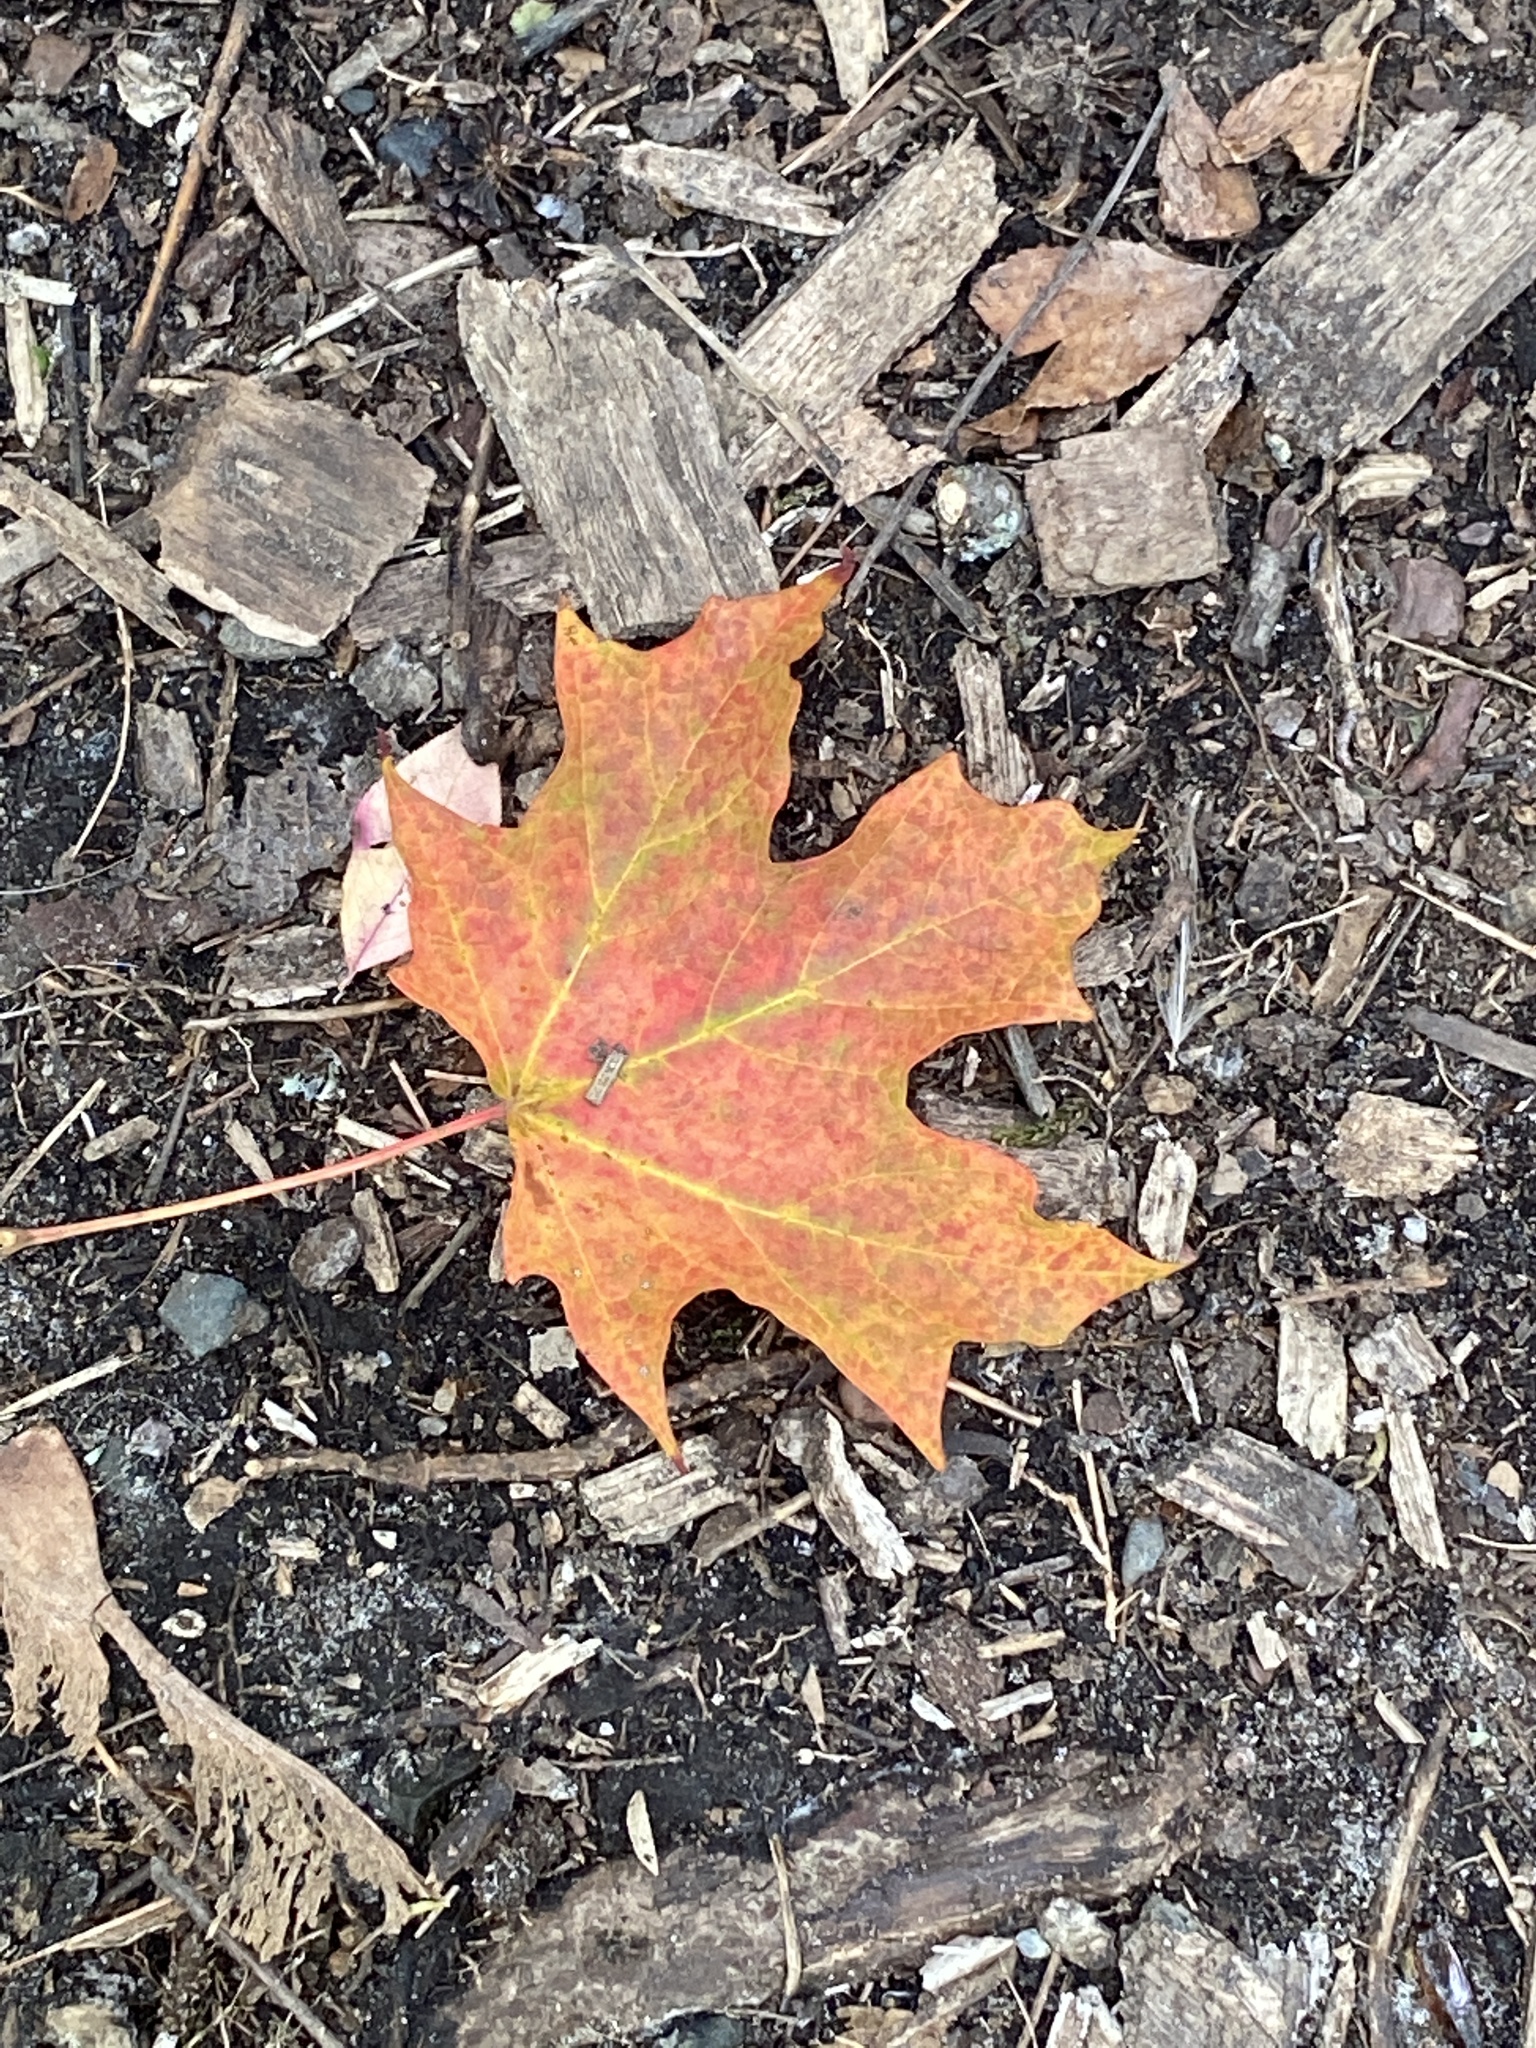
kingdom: Plantae
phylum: Tracheophyta
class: Magnoliopsida
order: Sapindales
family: Sapindaceae
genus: Acer
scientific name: Acer saccharum
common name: Sugar maple
